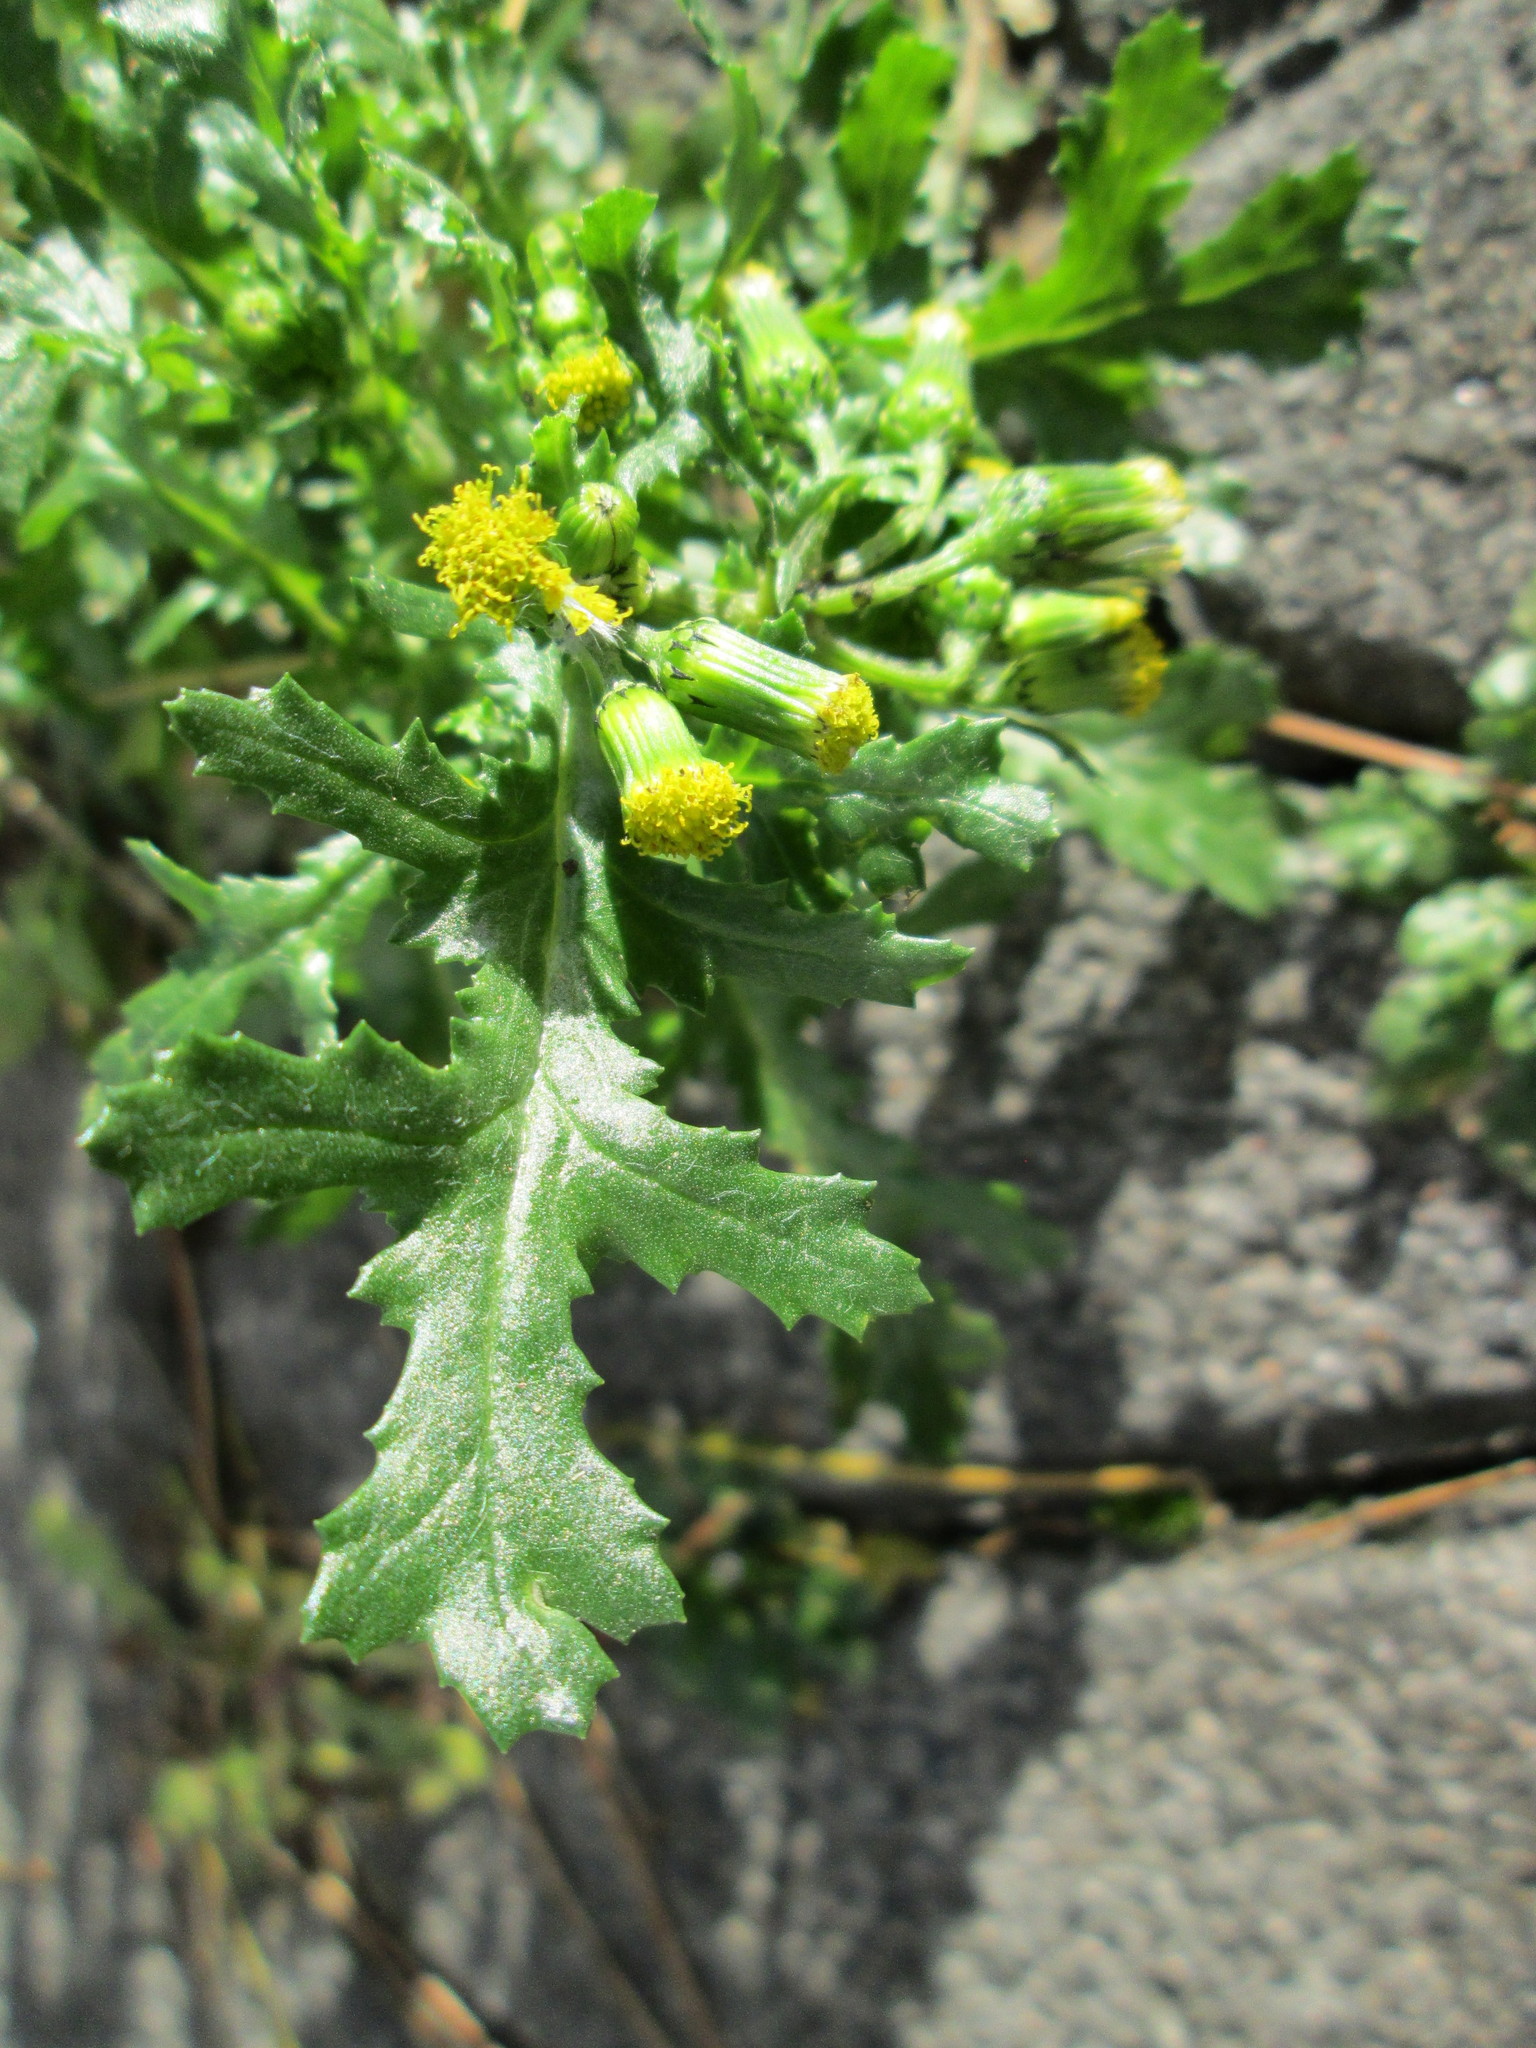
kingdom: Plantae
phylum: Tracheophyta
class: Magnoliopsida
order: Asterales
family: Asteraceae
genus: Senecio
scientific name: Senecio vulgaris
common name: Old-man-in-the-spring
